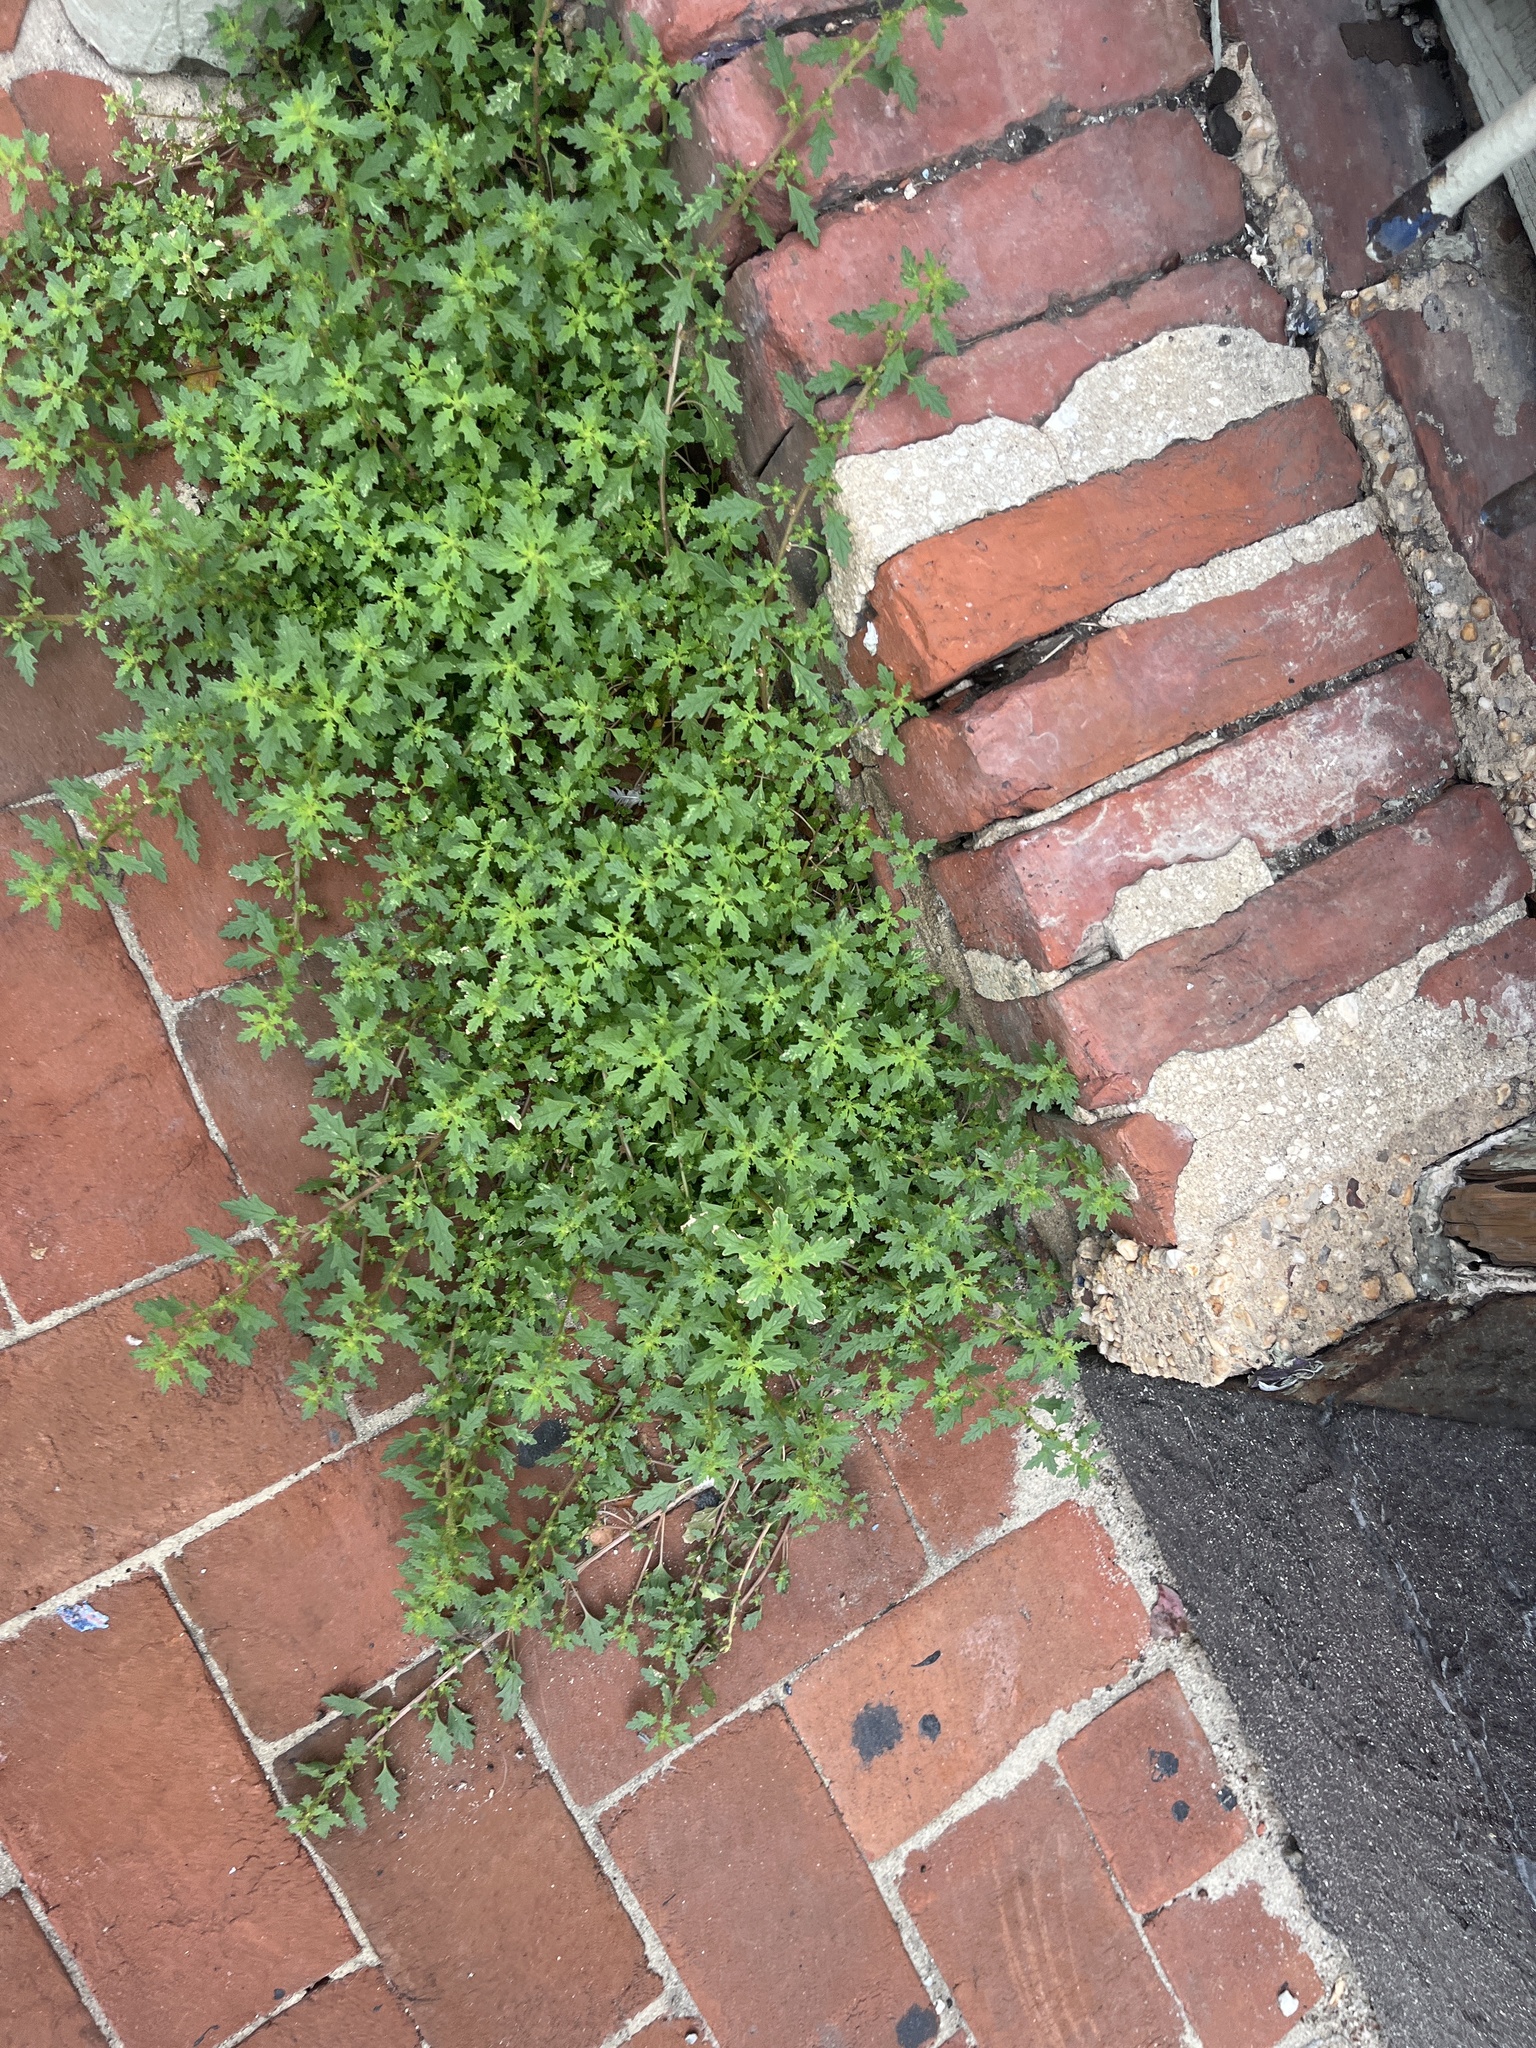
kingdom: Plantae
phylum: Tracheophyta
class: Magnoliopsida
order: Caryophyllales
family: Amaranthaceae
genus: Dysphania
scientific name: Dysphania pumilio
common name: Clammy goosefoot
